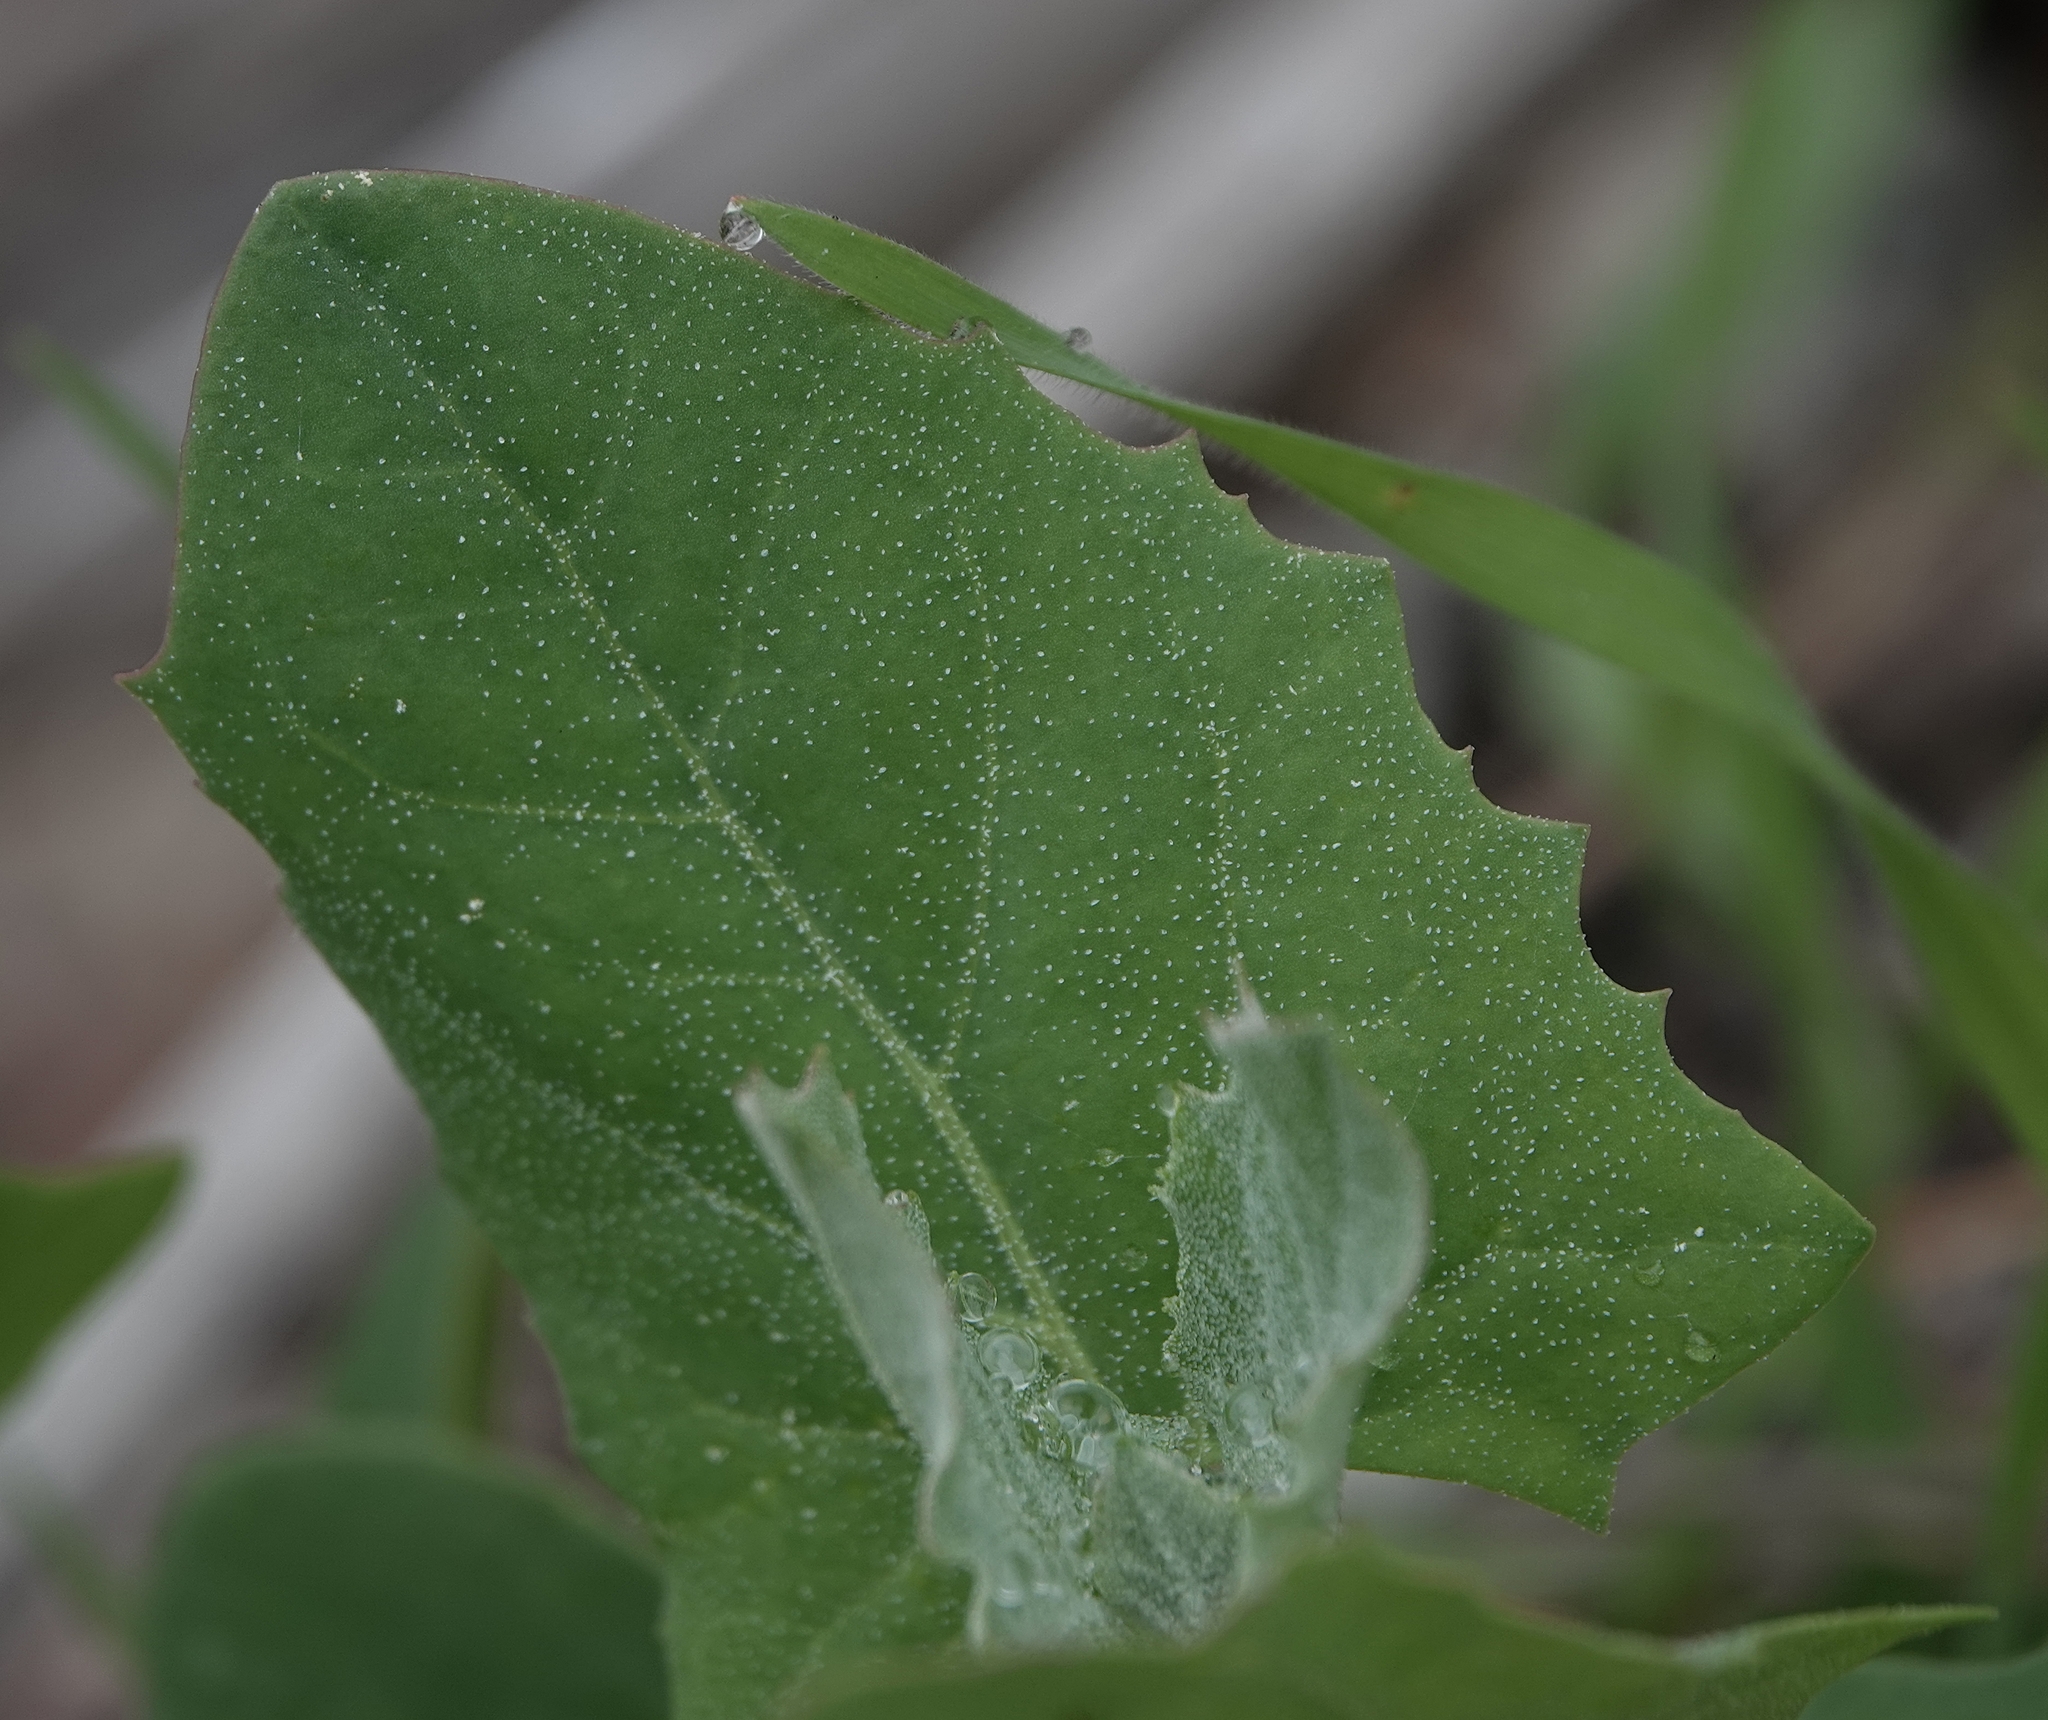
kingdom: Plantae
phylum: Tracheophyta
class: Magnoliopsida
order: Caryophyllales
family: Amaranthaceae
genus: Atriplex
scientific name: Atriplex calotheca
